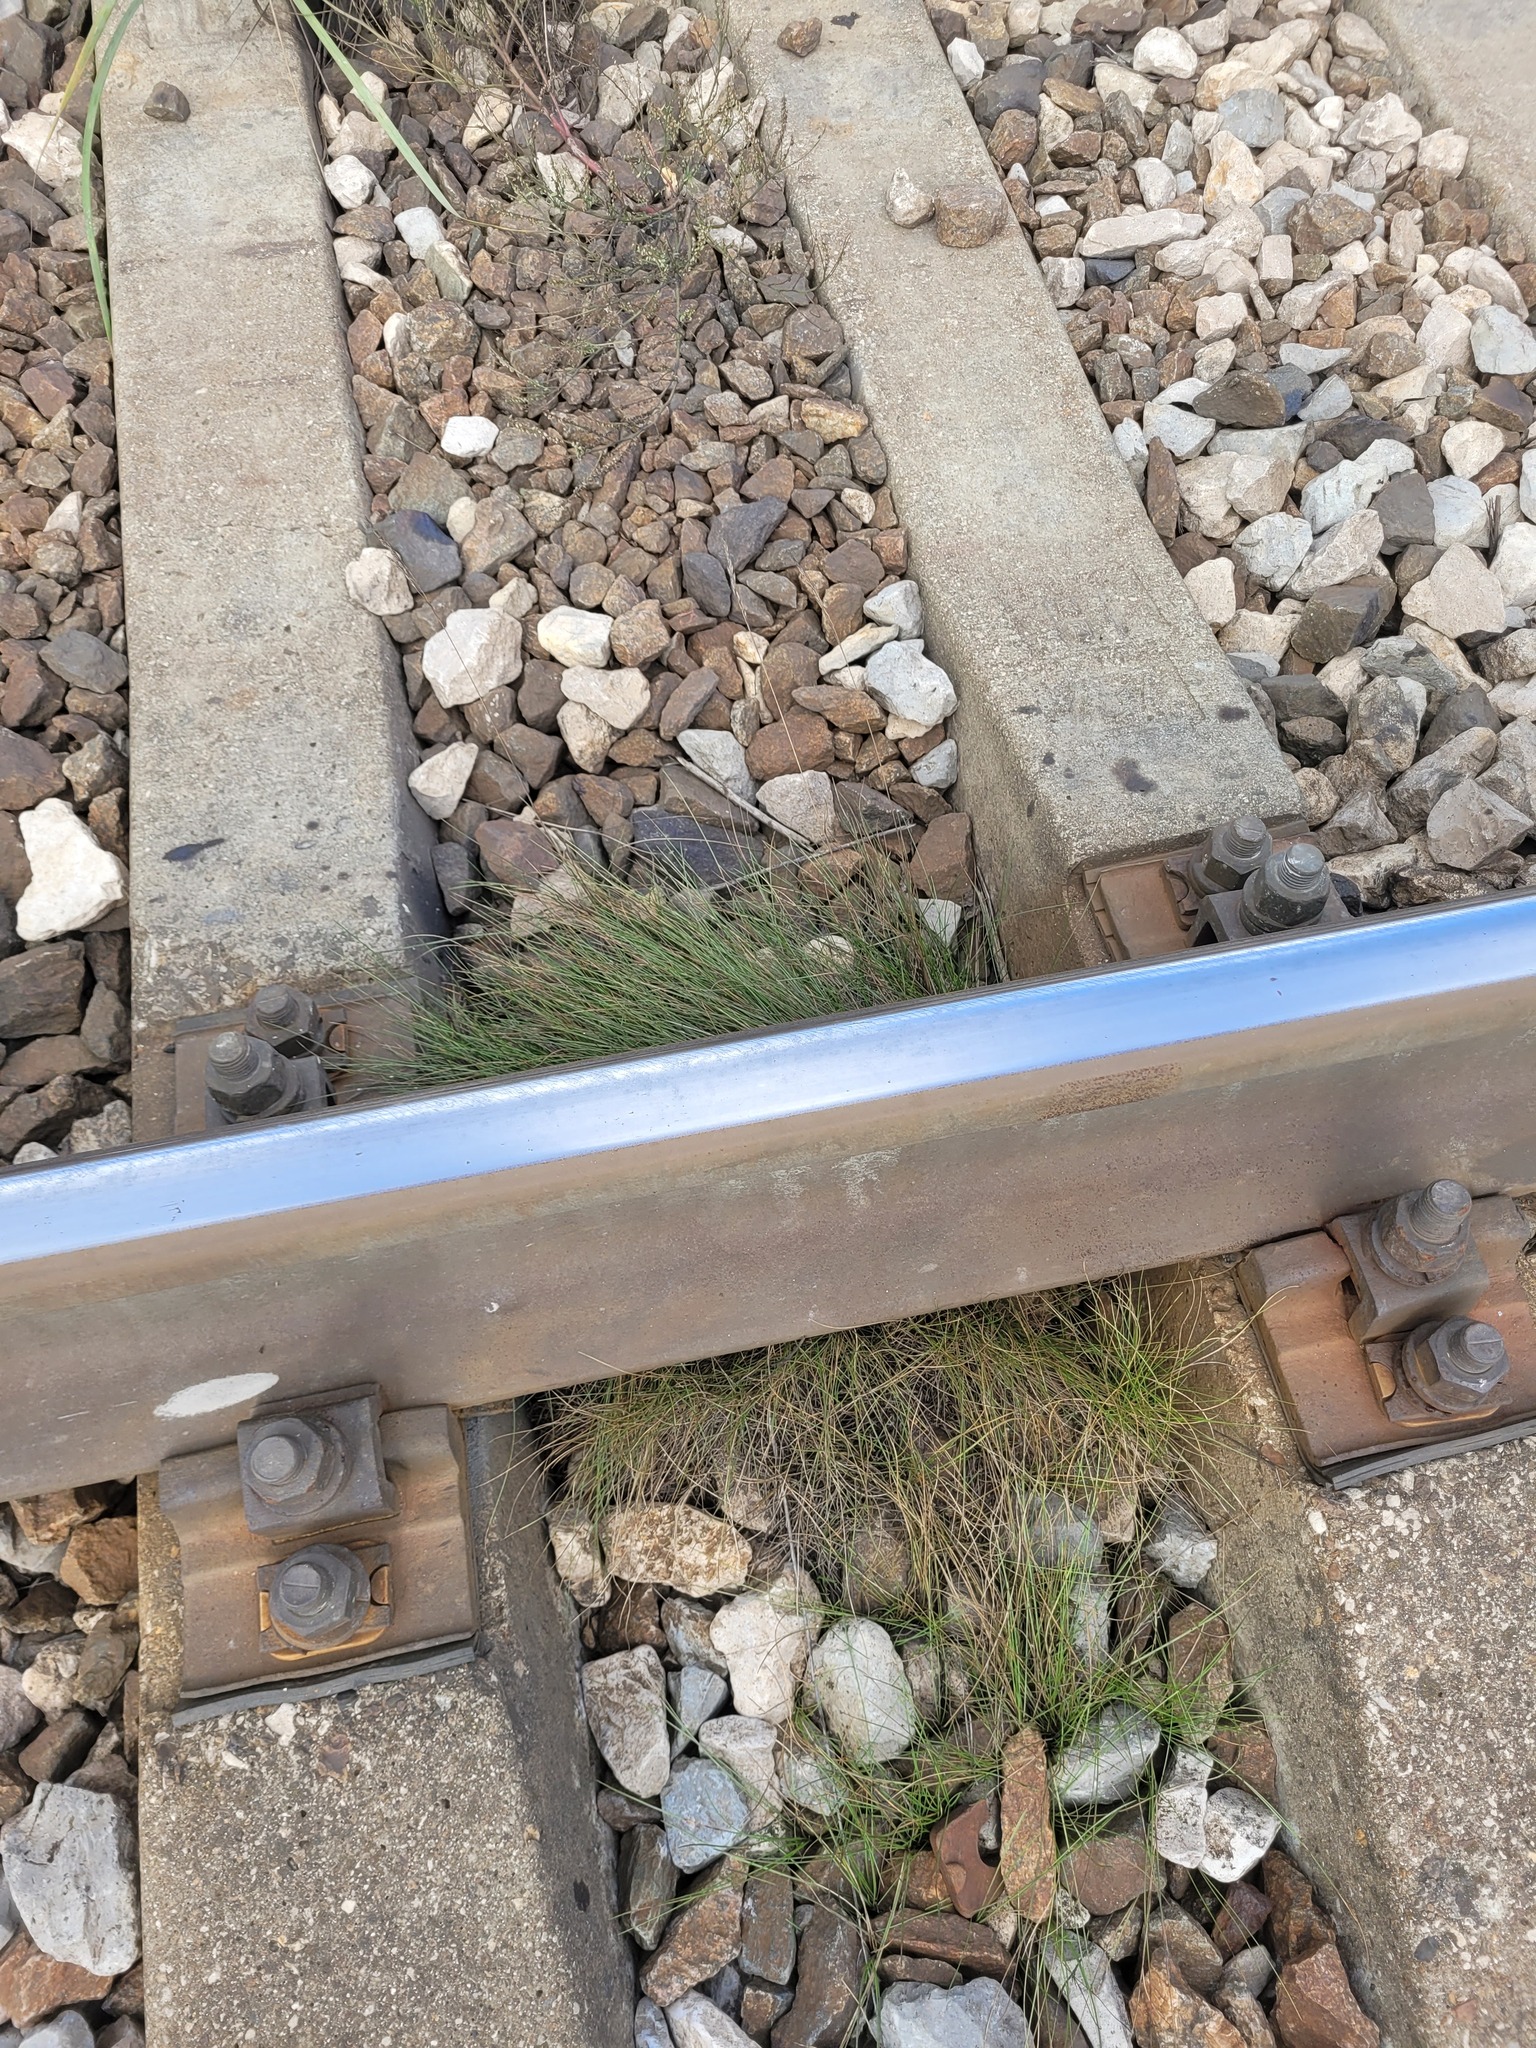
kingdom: Plantae
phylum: Tracheophyta
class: Liliopsida
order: Poales
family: Poaceae
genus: Festuca
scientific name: Festuca rubra
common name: Red fescue
